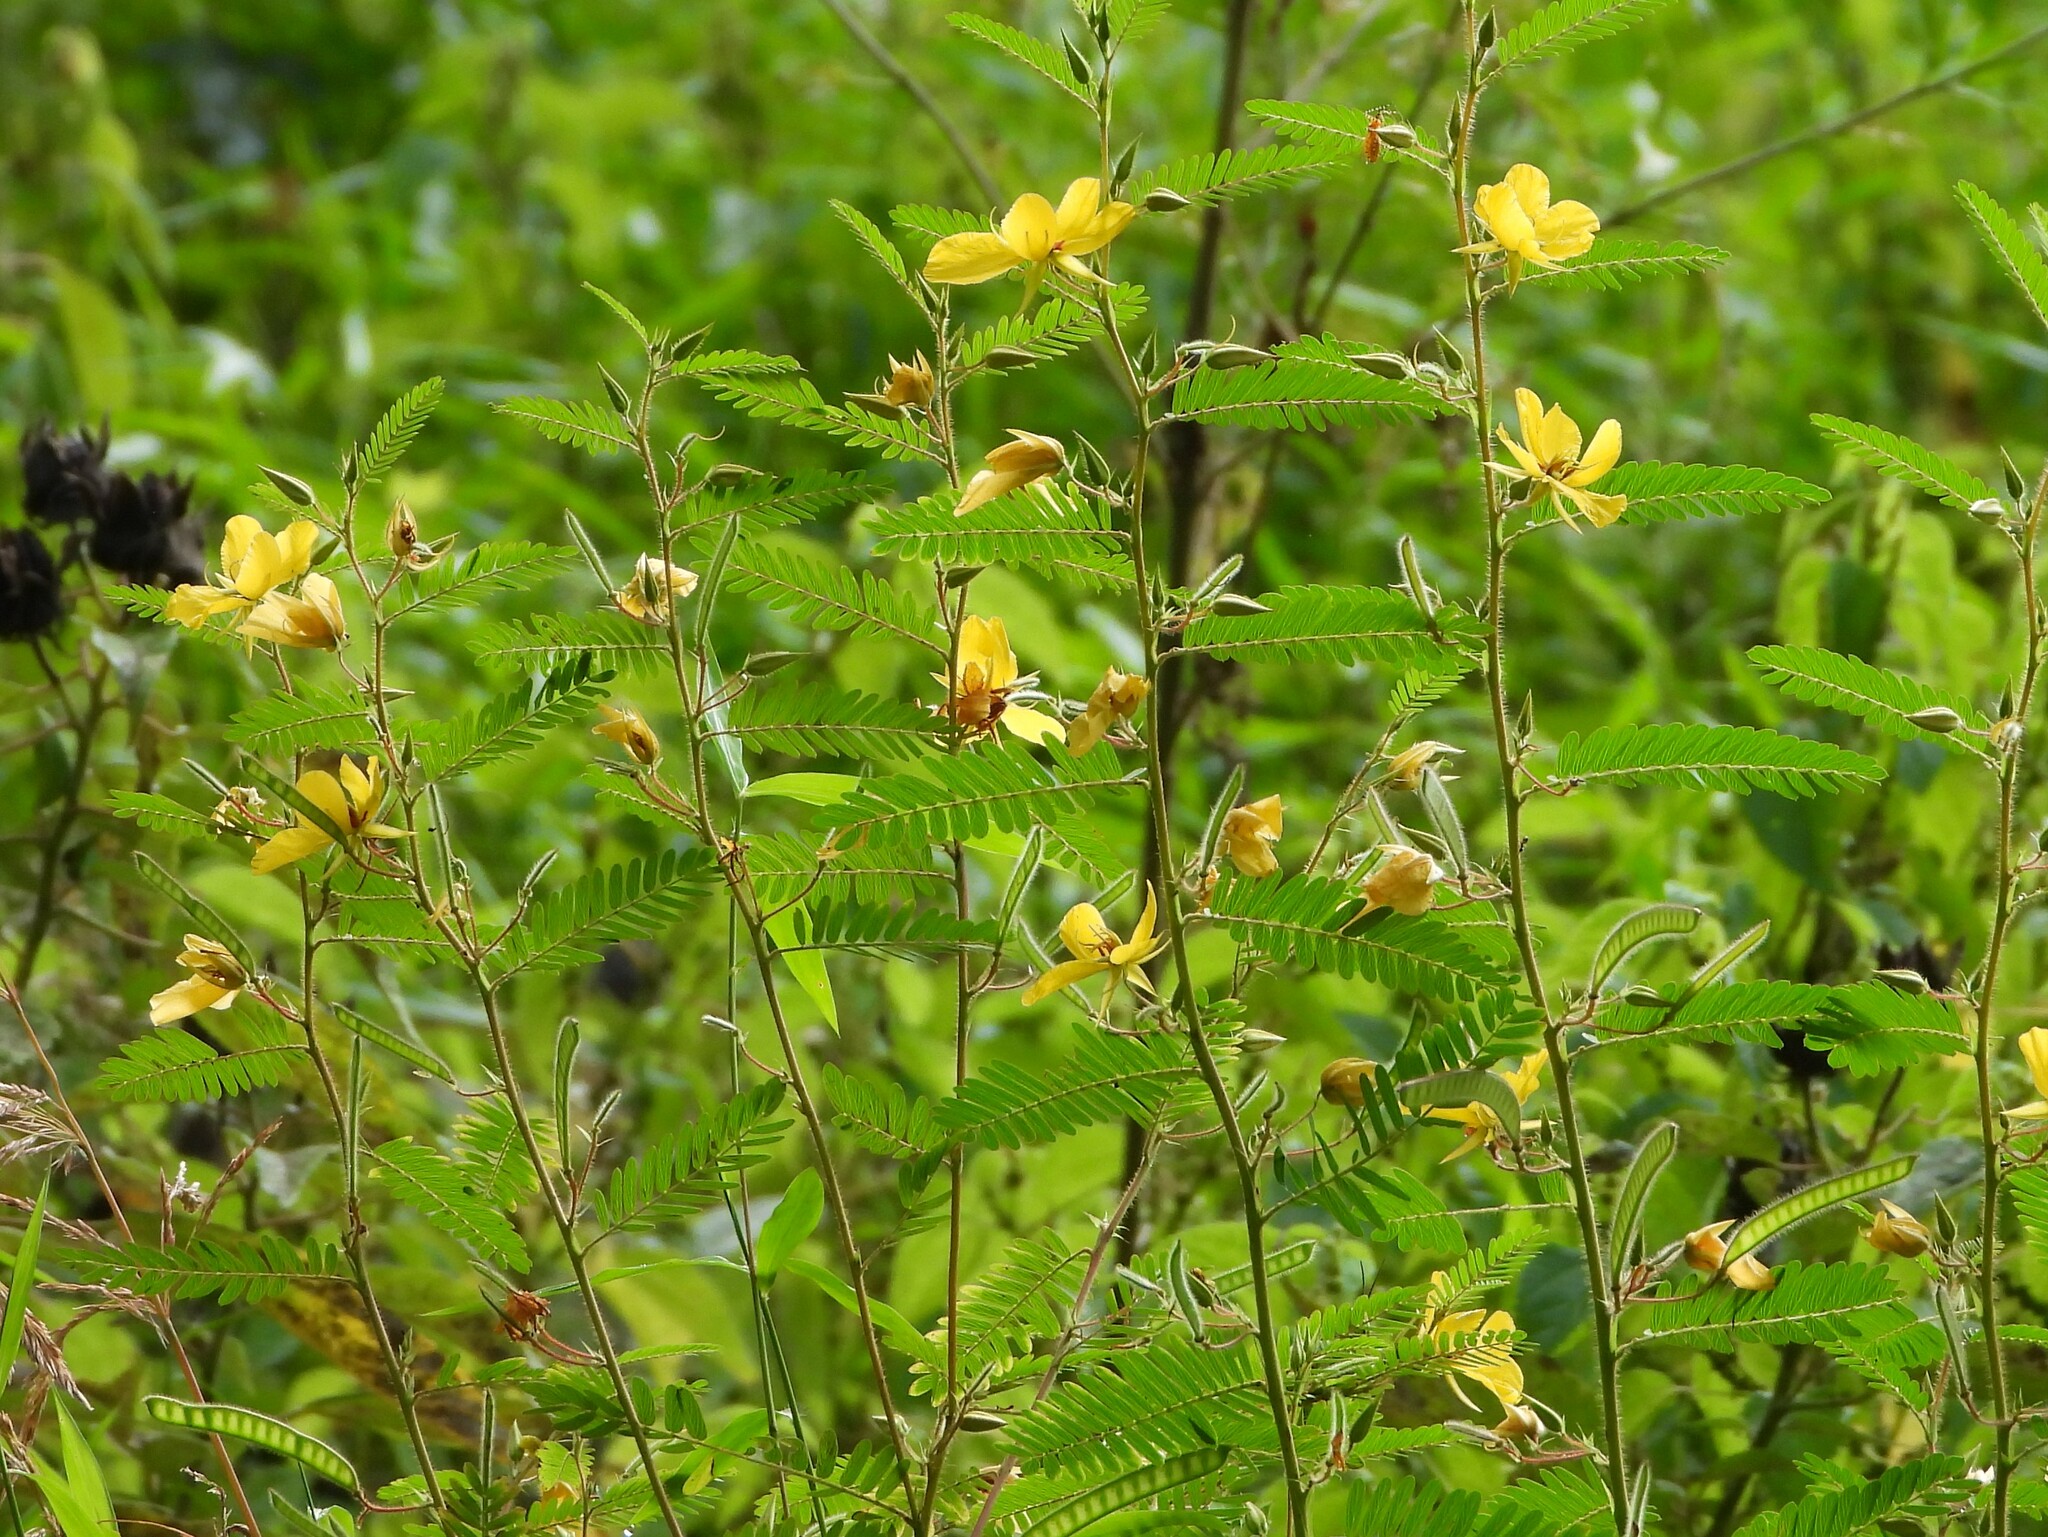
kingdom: Plantae
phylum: Tracheophyta
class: Magnoliopsida
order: Fabales
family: Fabaceae
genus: Chamaecrista
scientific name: Chamaecrista fasciculata
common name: Golden cassia
